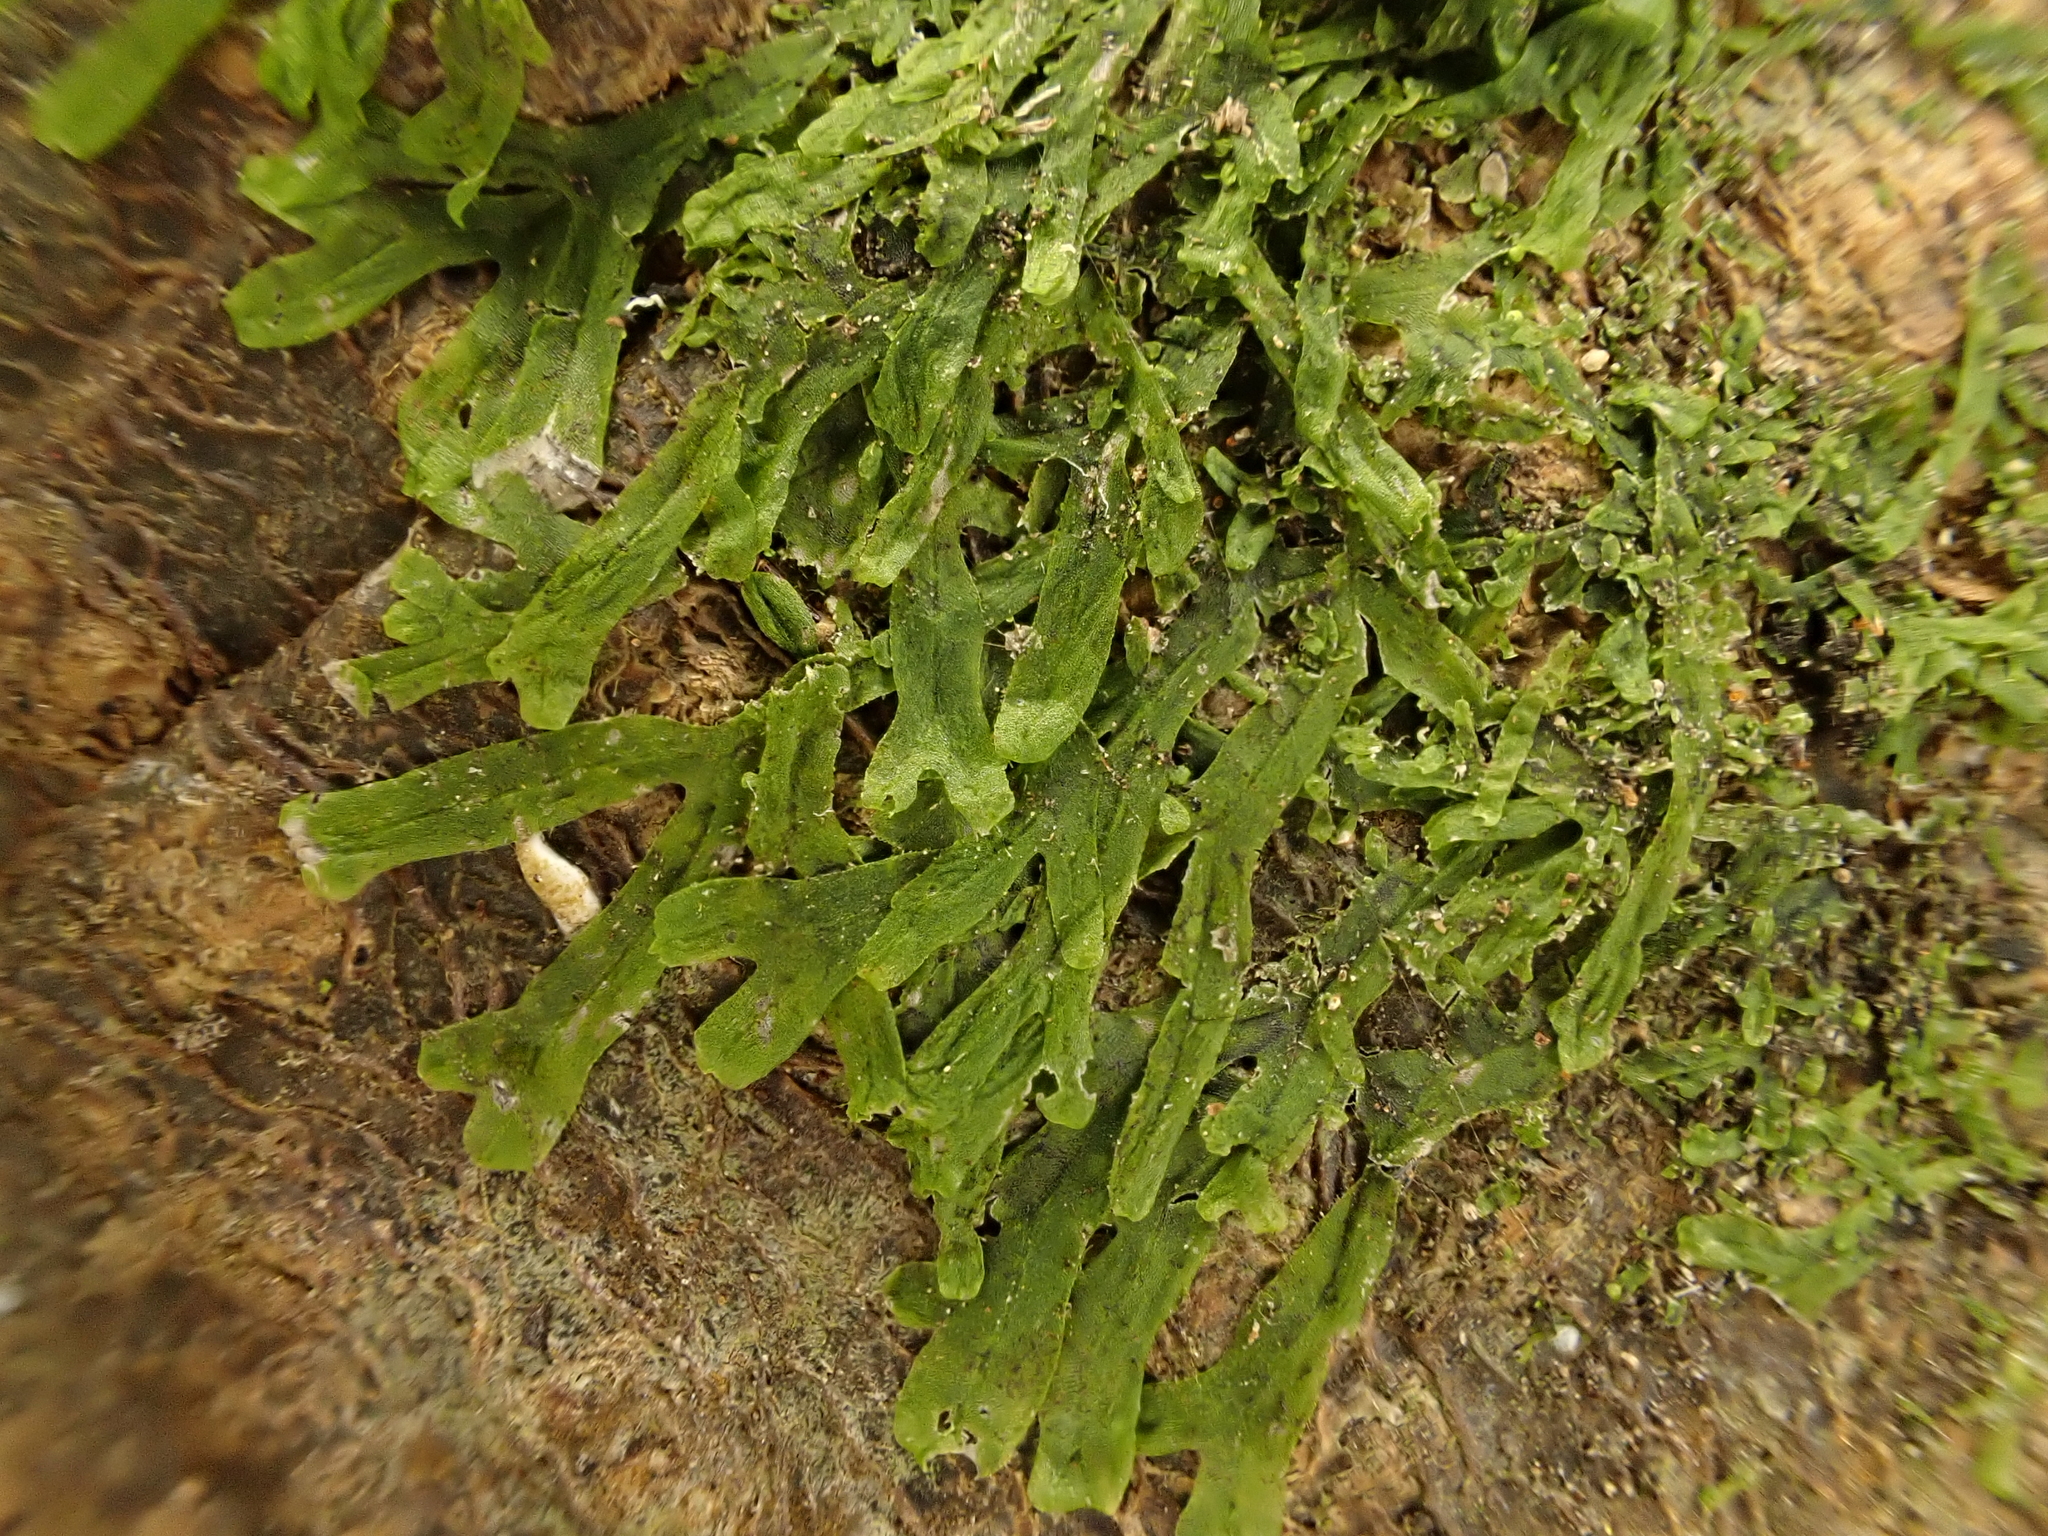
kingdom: Plantae
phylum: Marchantiophyta
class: Jungermanniopsida
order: Metzgeriales
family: Metzgeriaceae
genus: Metzgeria
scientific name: Metzgeria furcata
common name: Forked veilwort
